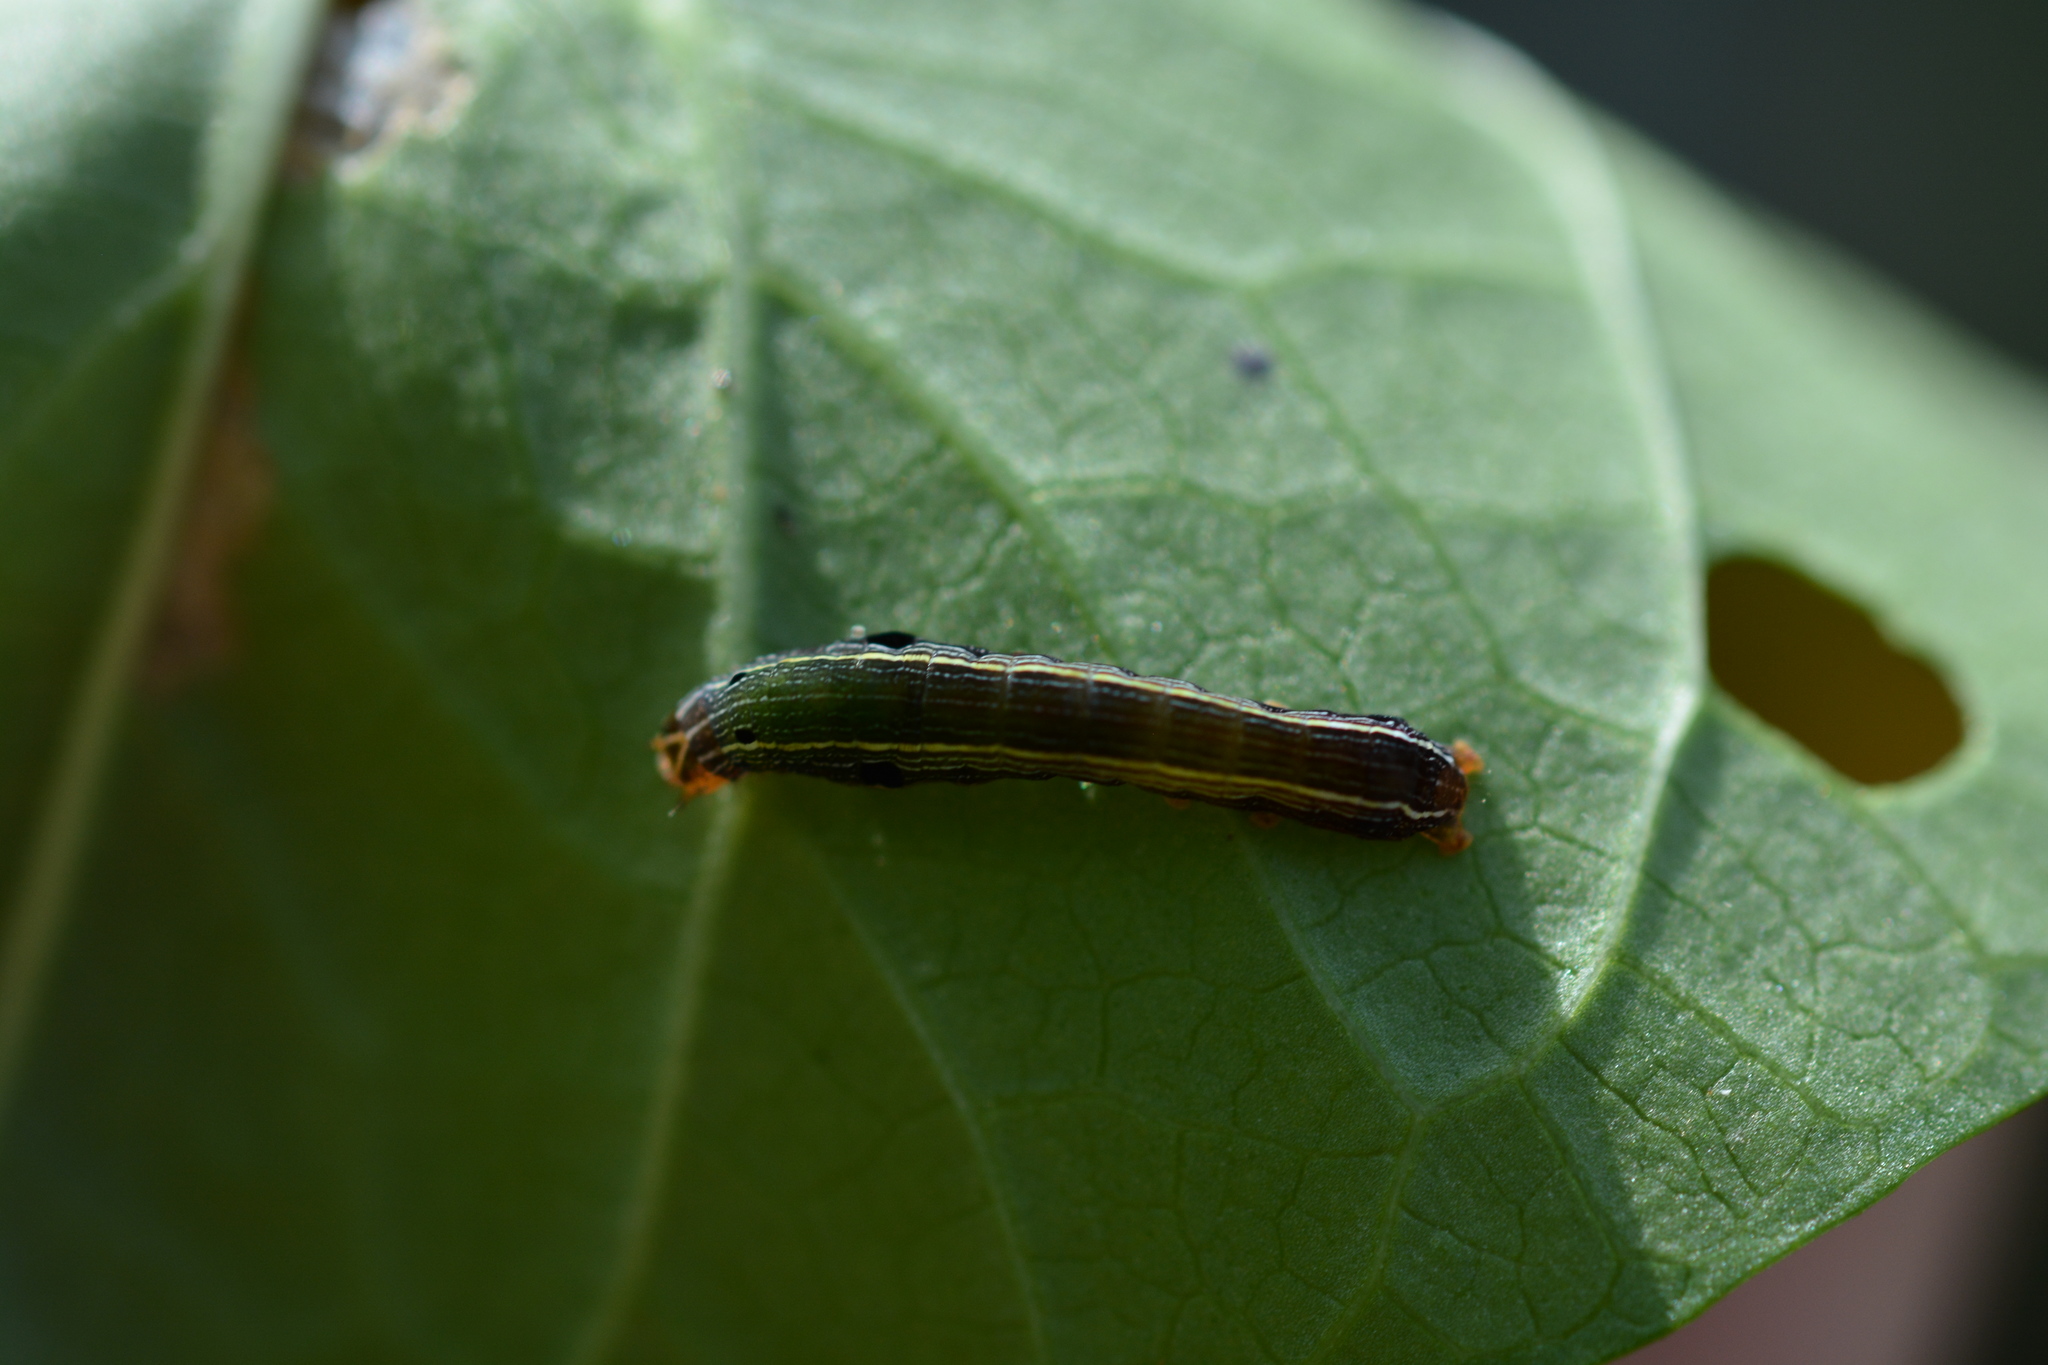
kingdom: Animalia
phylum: Arthropoda
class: Insecta
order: Lepidoptera
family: Noctuidae
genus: Spodoptera
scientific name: Spodoptera ornithogalli
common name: Yellow-striped armyworm
